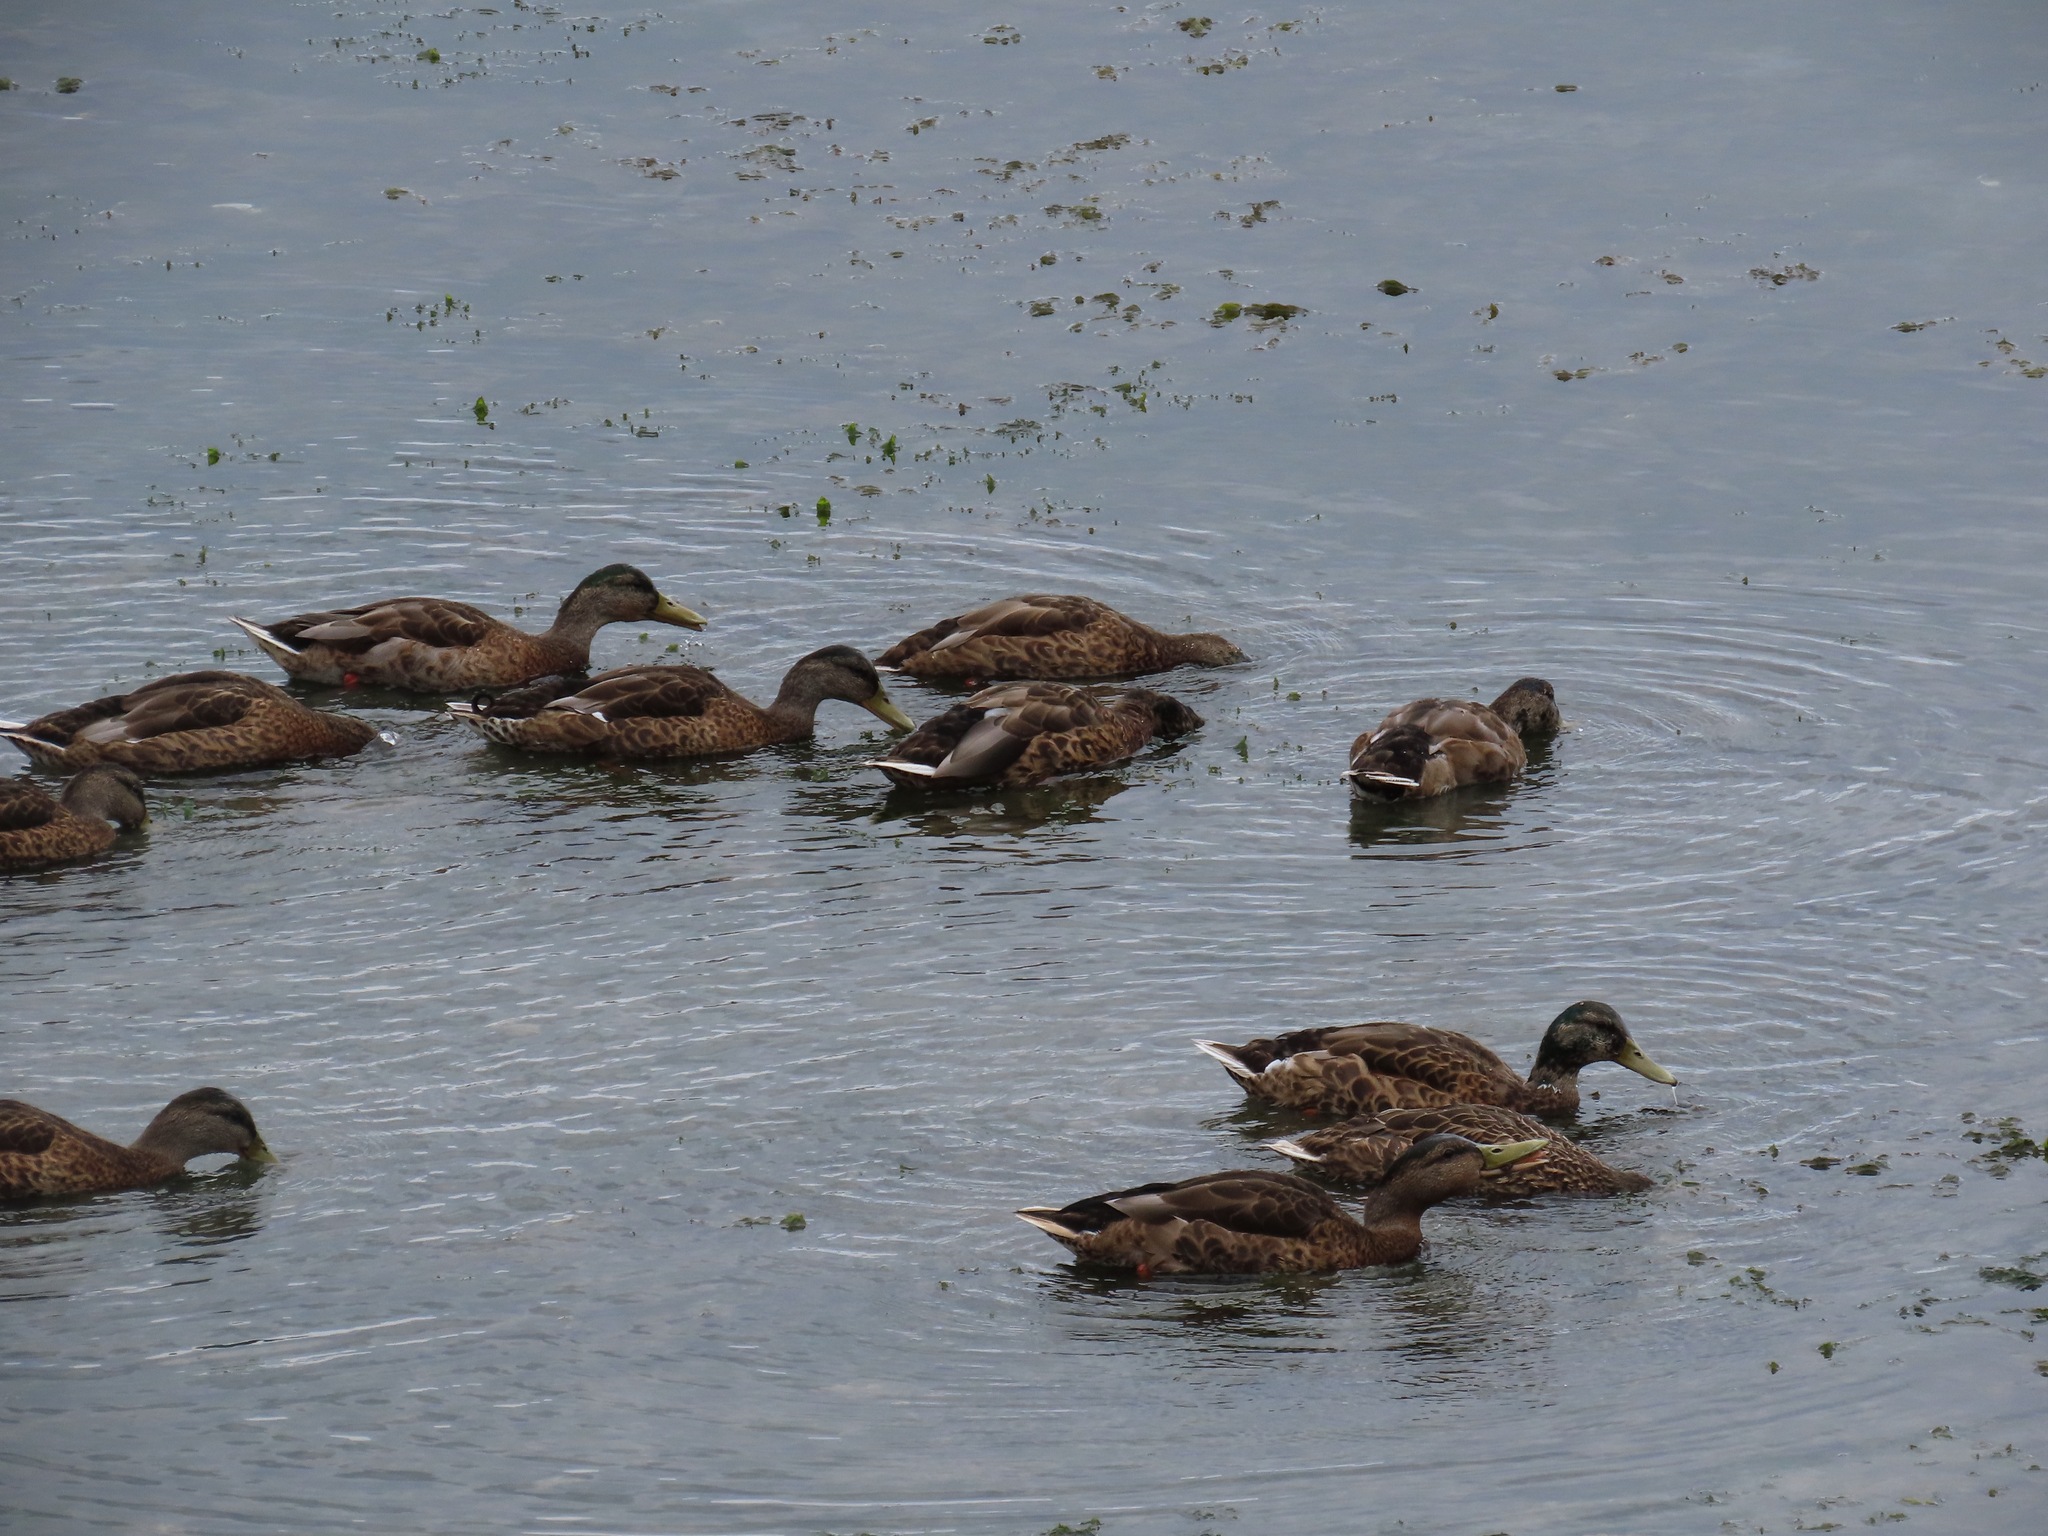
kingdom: Animalia
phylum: Chordata
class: Aves
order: Anseriformes
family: Anatidae
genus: Anas
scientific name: Anas platyrhynchos
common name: Mallard
